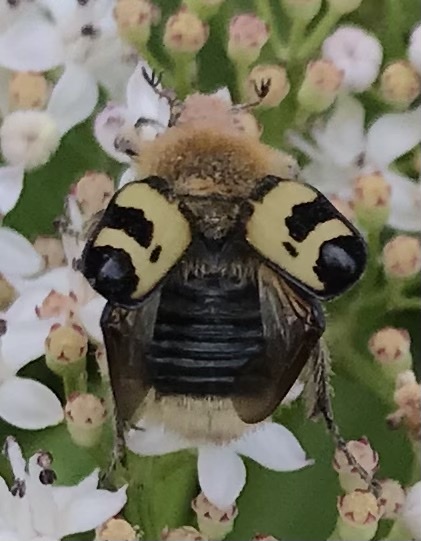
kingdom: Animalia
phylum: Arthropoda
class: Insecta
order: Coleoptera
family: Scarabaeidae
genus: Trichius
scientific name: Trichius fasciatus
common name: Bee beetle
